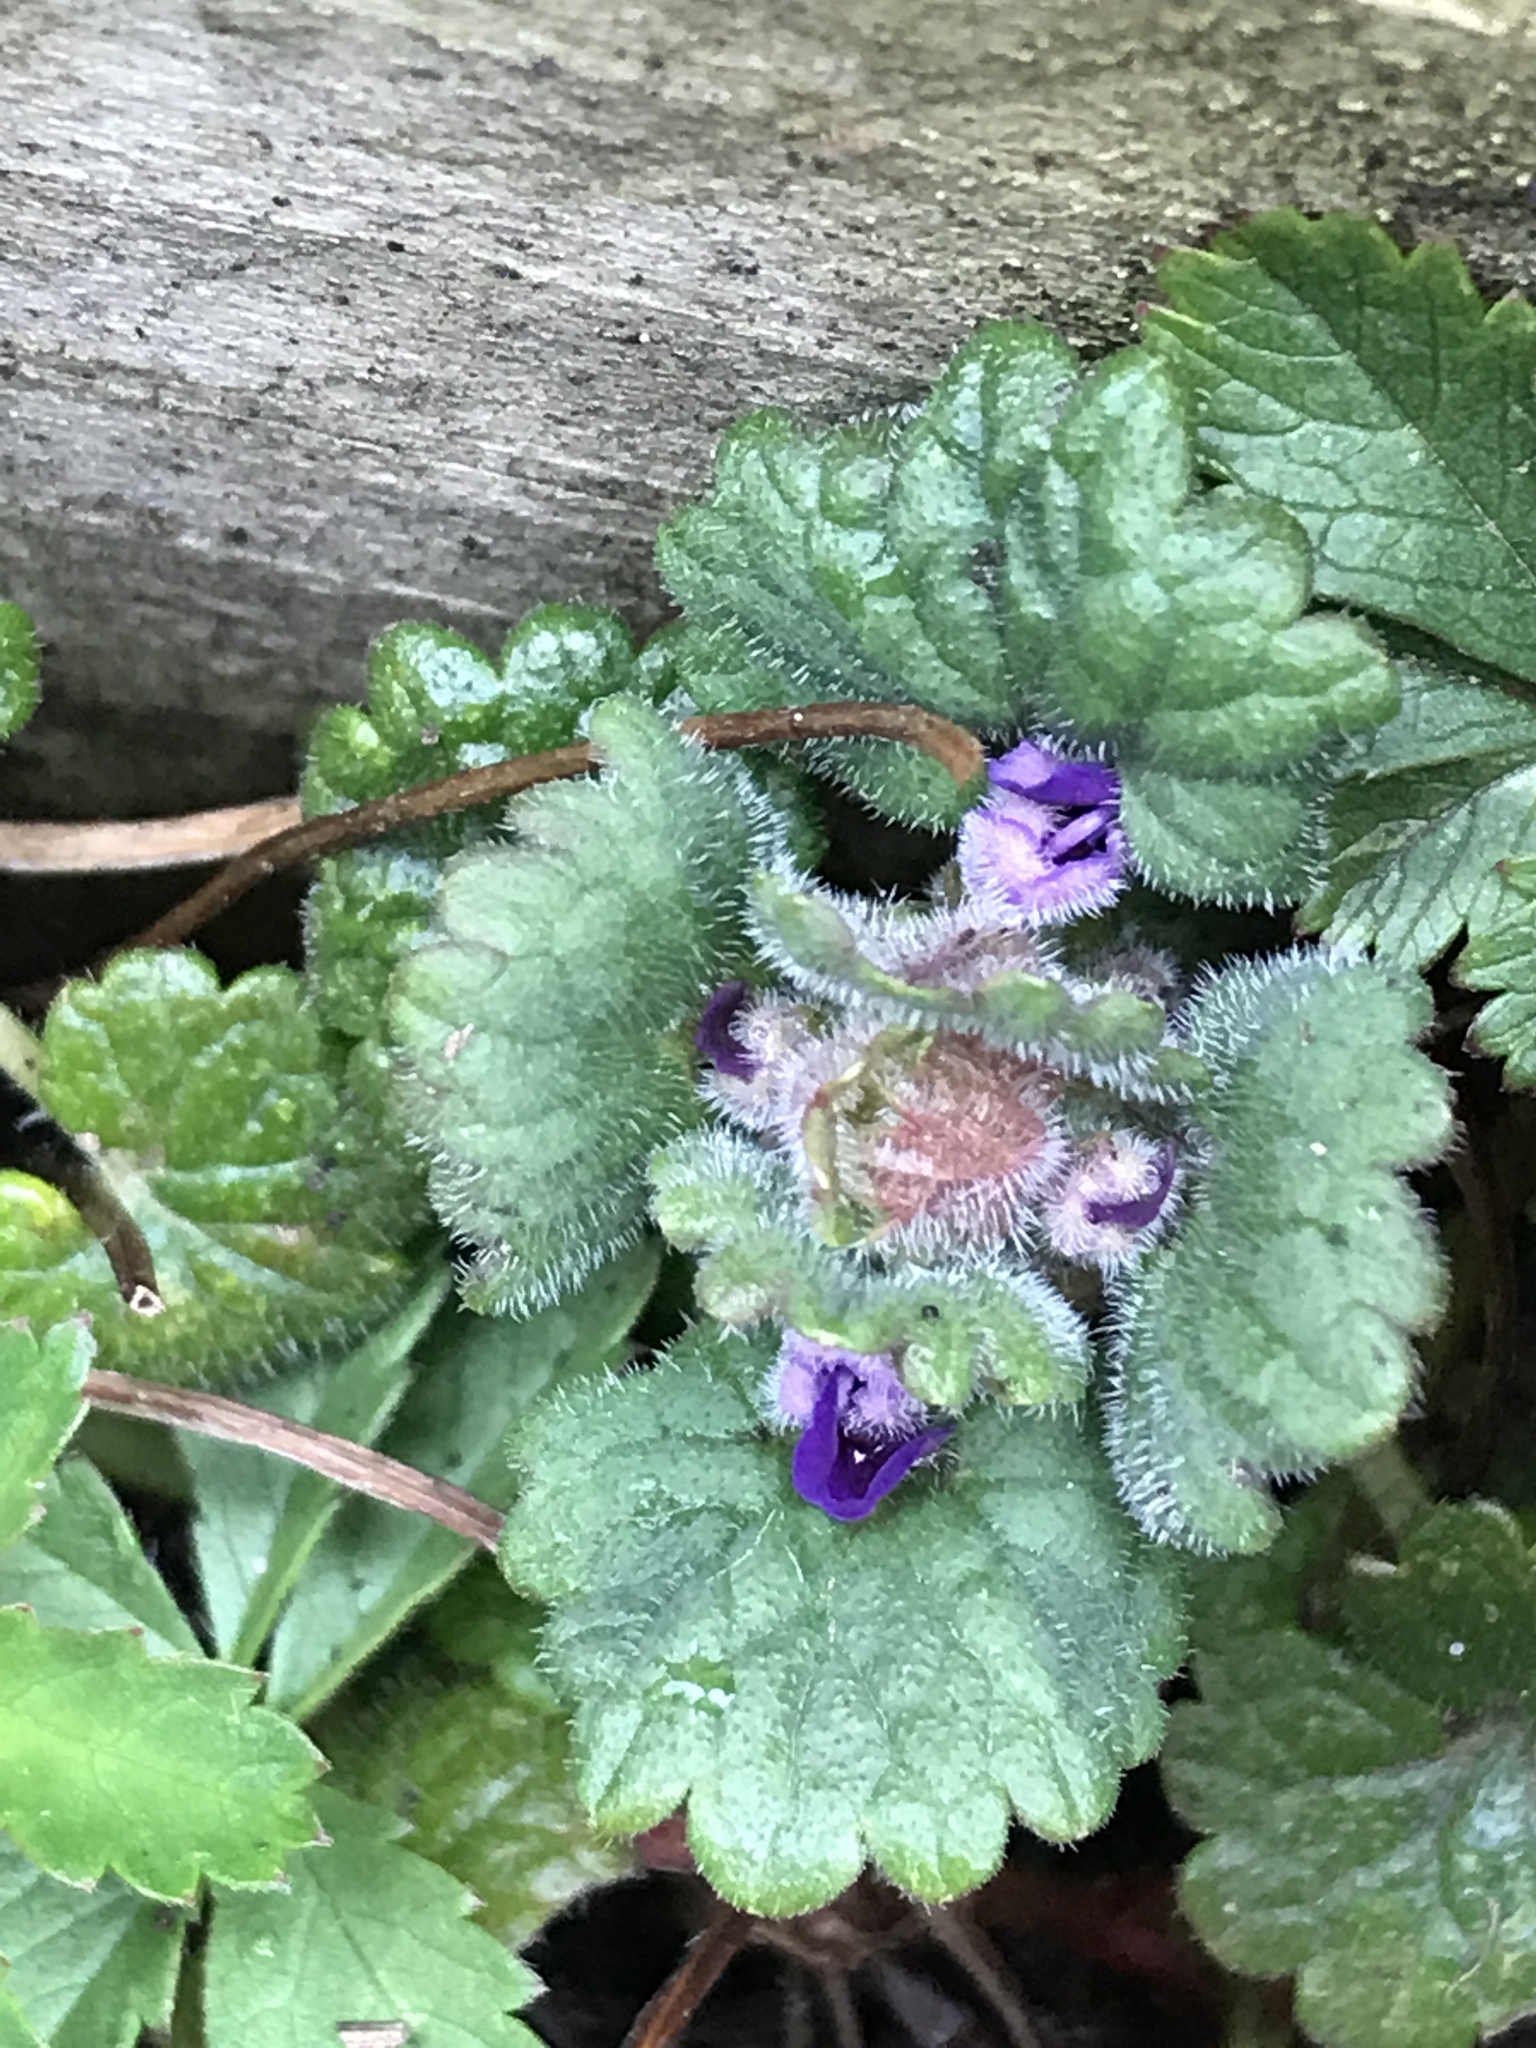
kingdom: Plantae
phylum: Tracheophyta
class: Magnoliopsida
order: Lamiales
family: Lamiaceae
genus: Glechoma
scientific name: Glechoma hederacea
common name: Ground ivy
